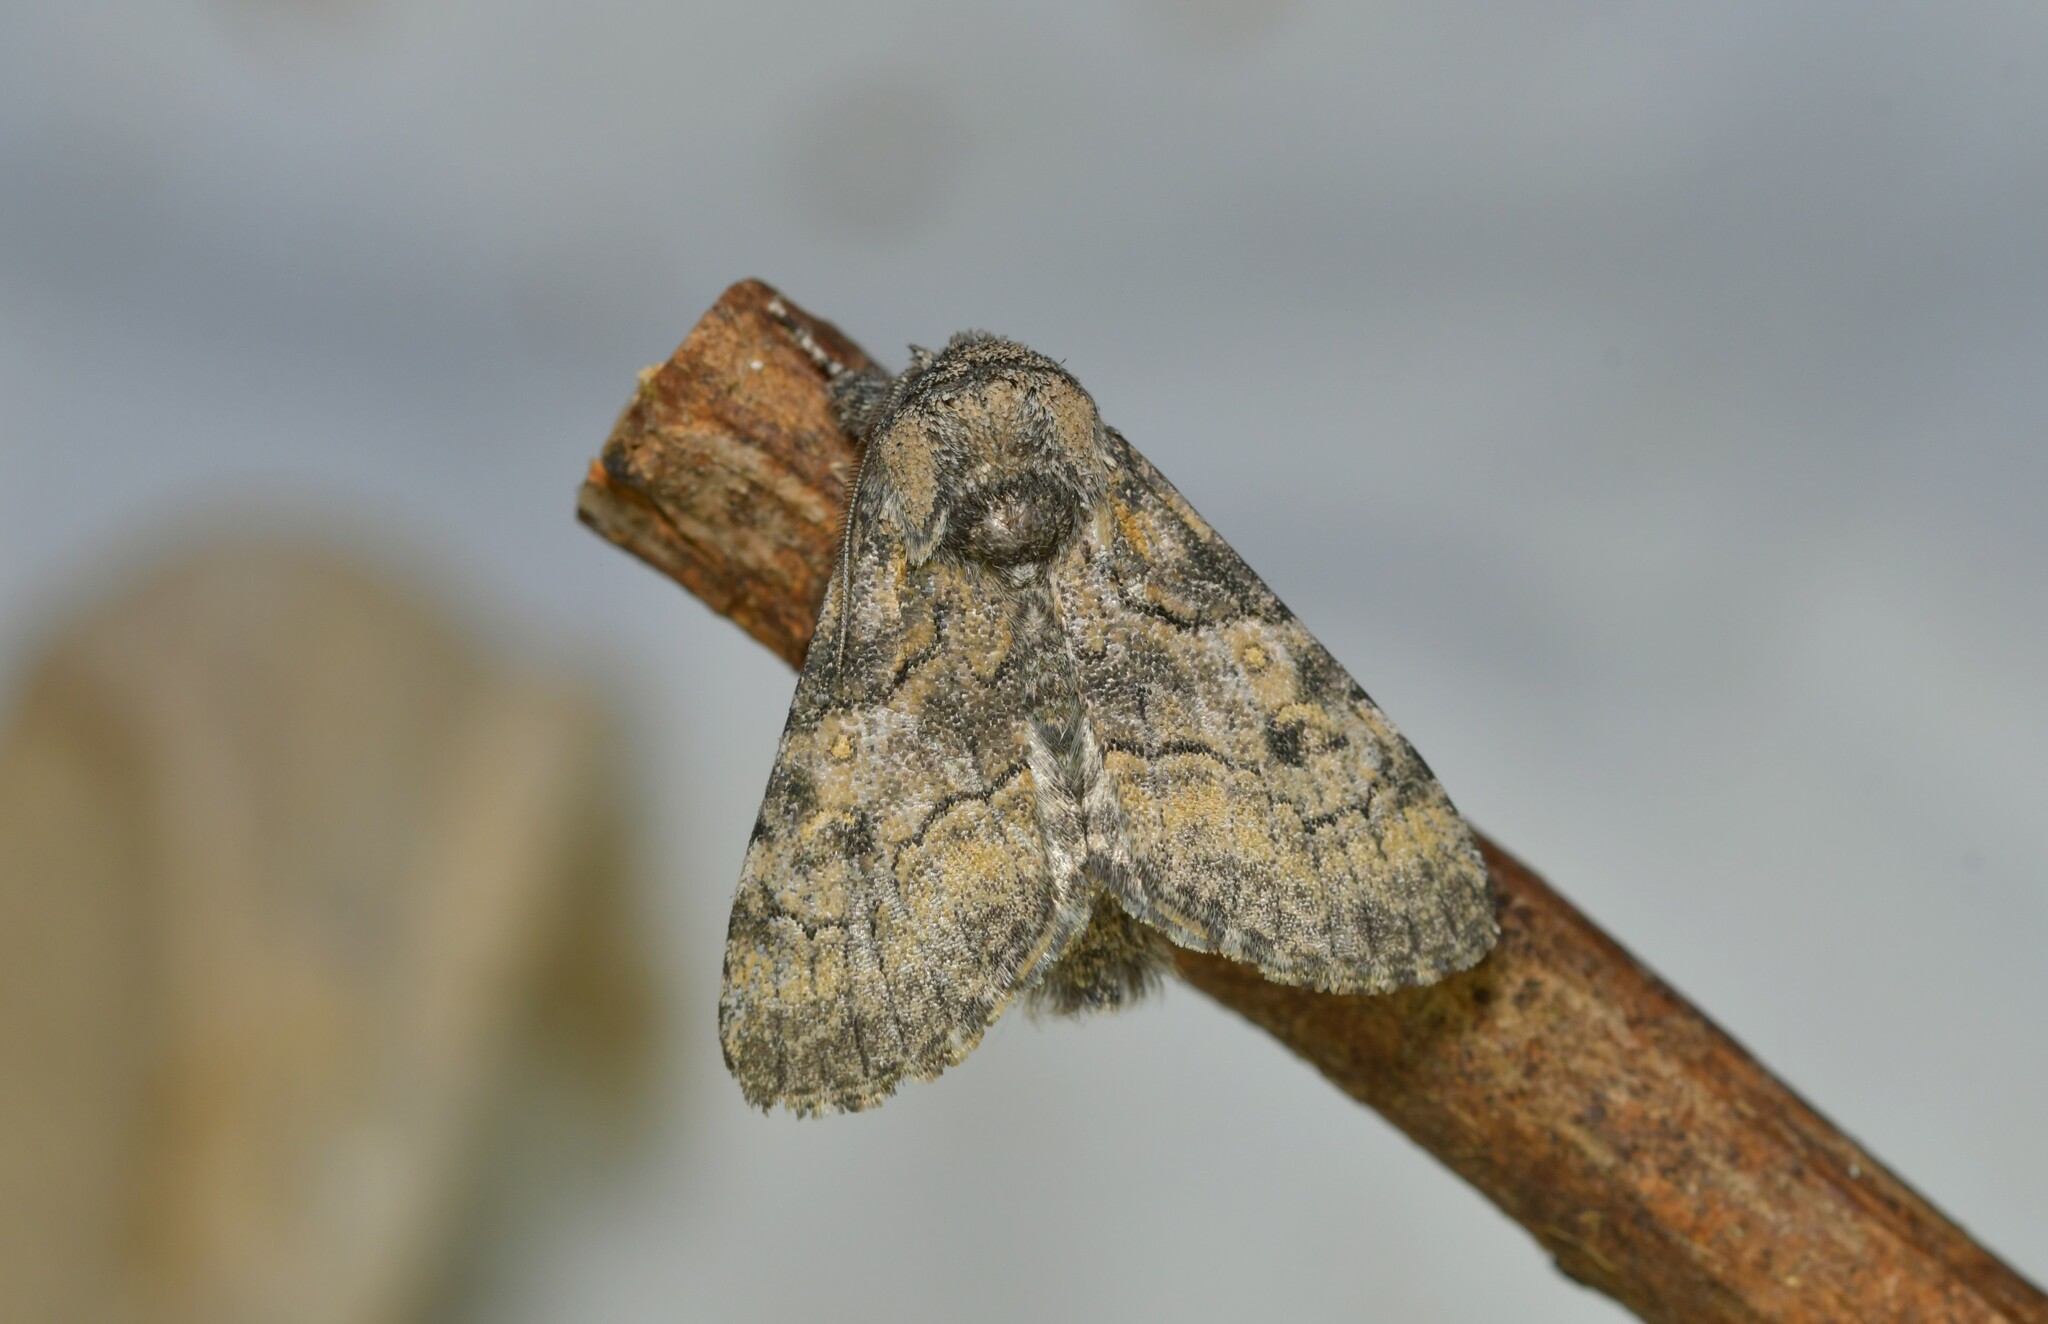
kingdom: Animalia
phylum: Arthropoda
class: Insecta
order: Lepidoptera
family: Noctuidae
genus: Raphia
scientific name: Raphia hybris
